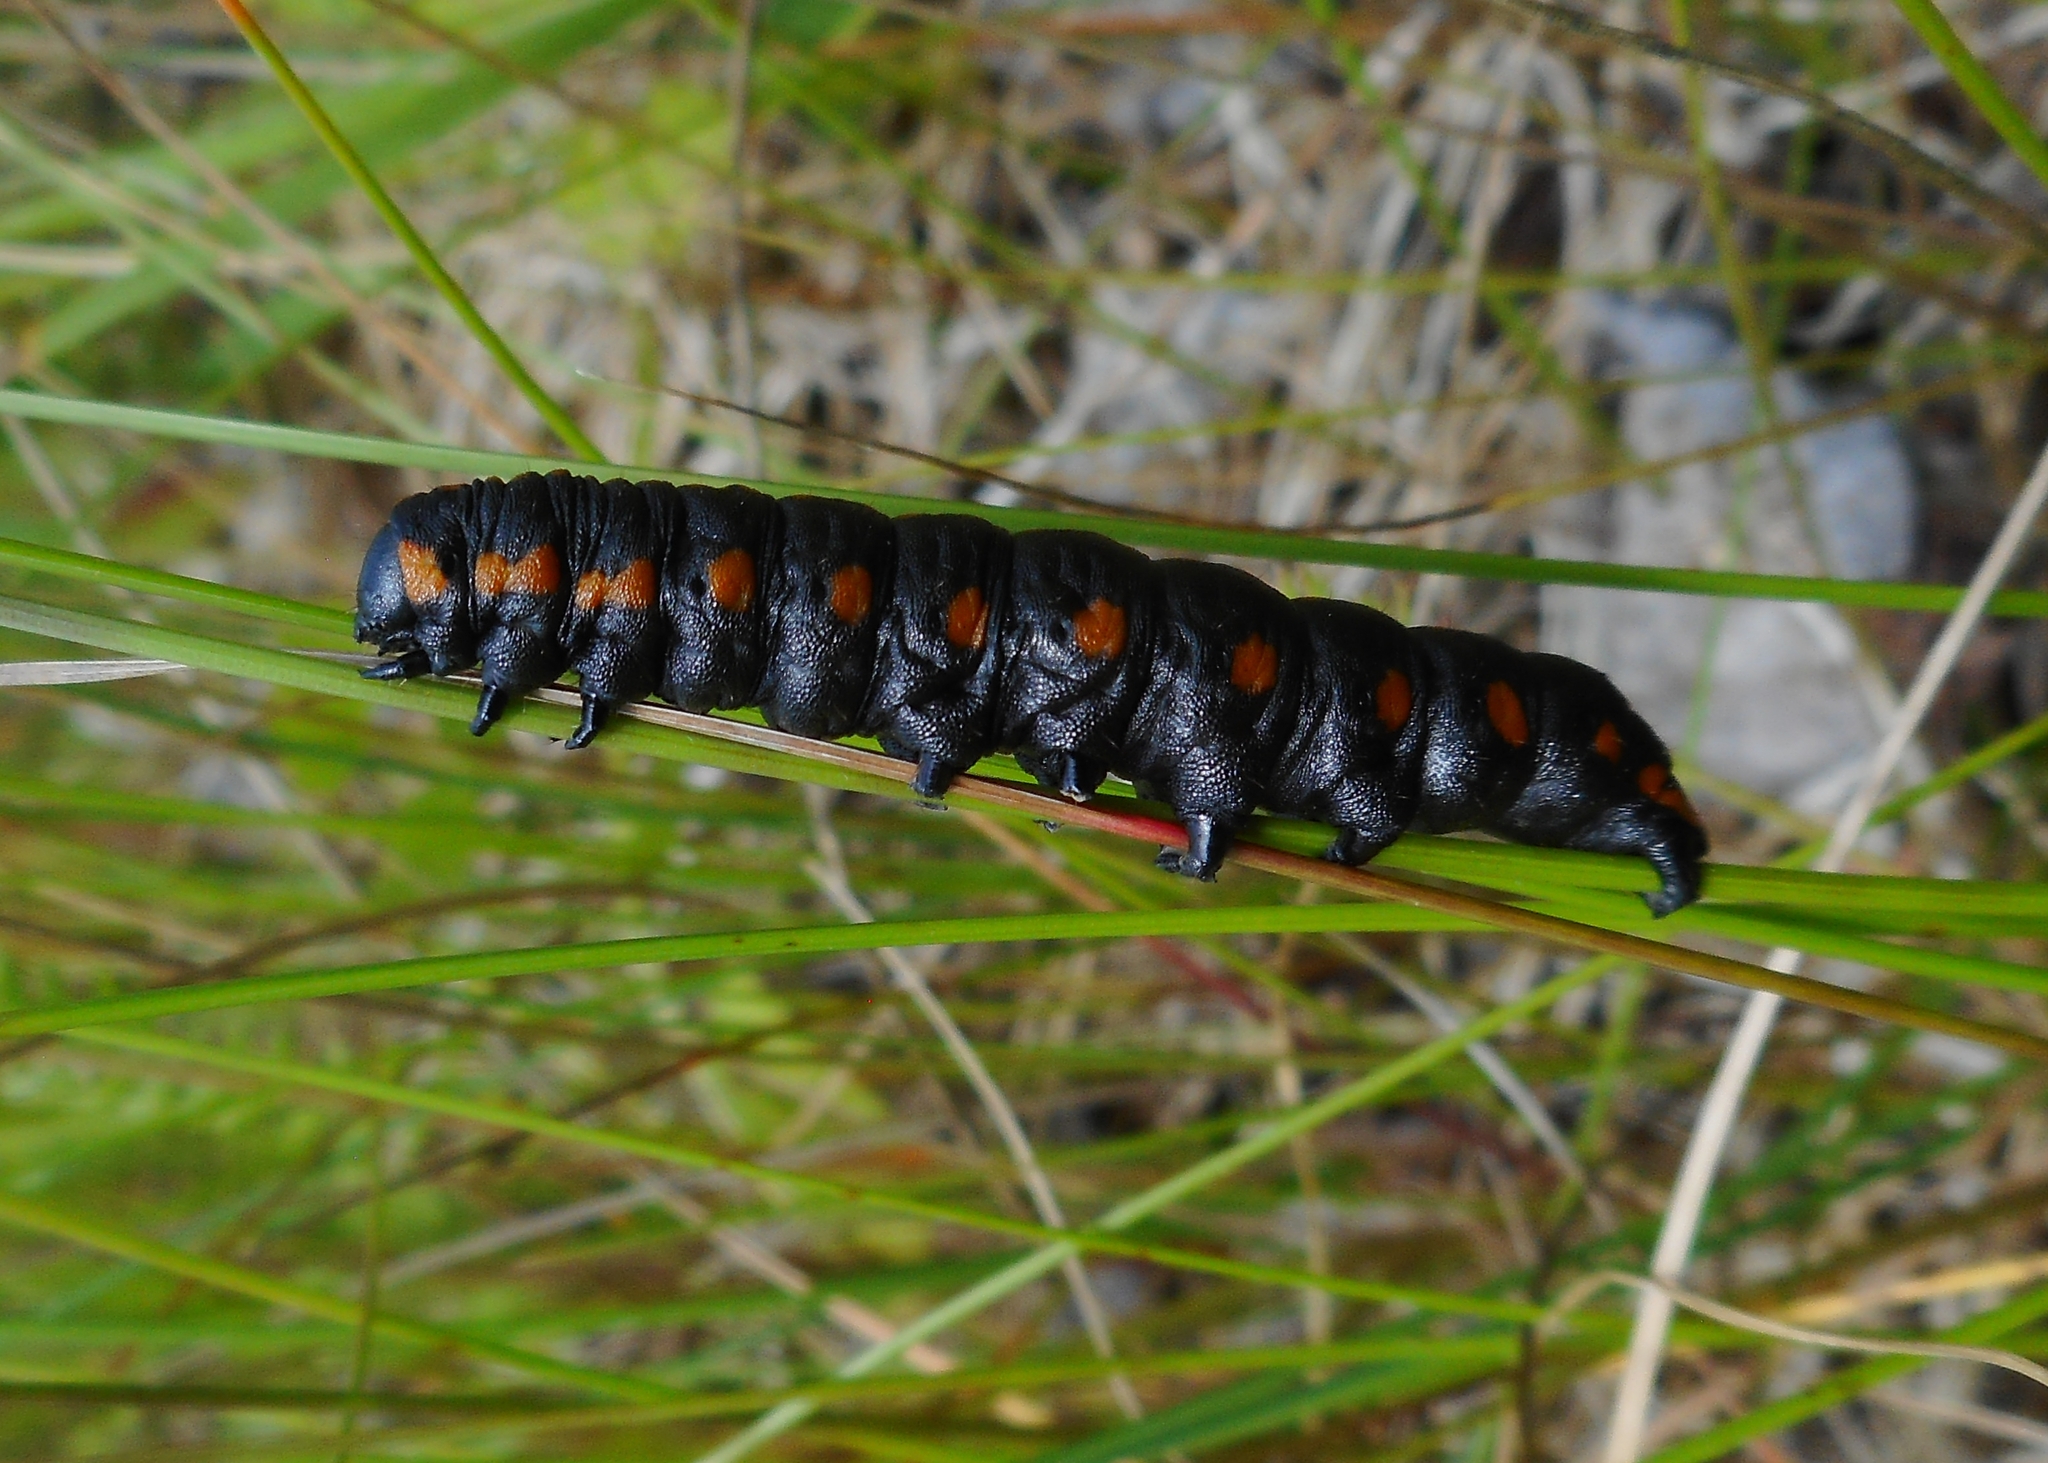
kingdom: Animalia
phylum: Arthropoda
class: Insecta
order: Lepidoptera
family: Noctuidae
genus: Cucullia
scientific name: Cucullia lucifuga
